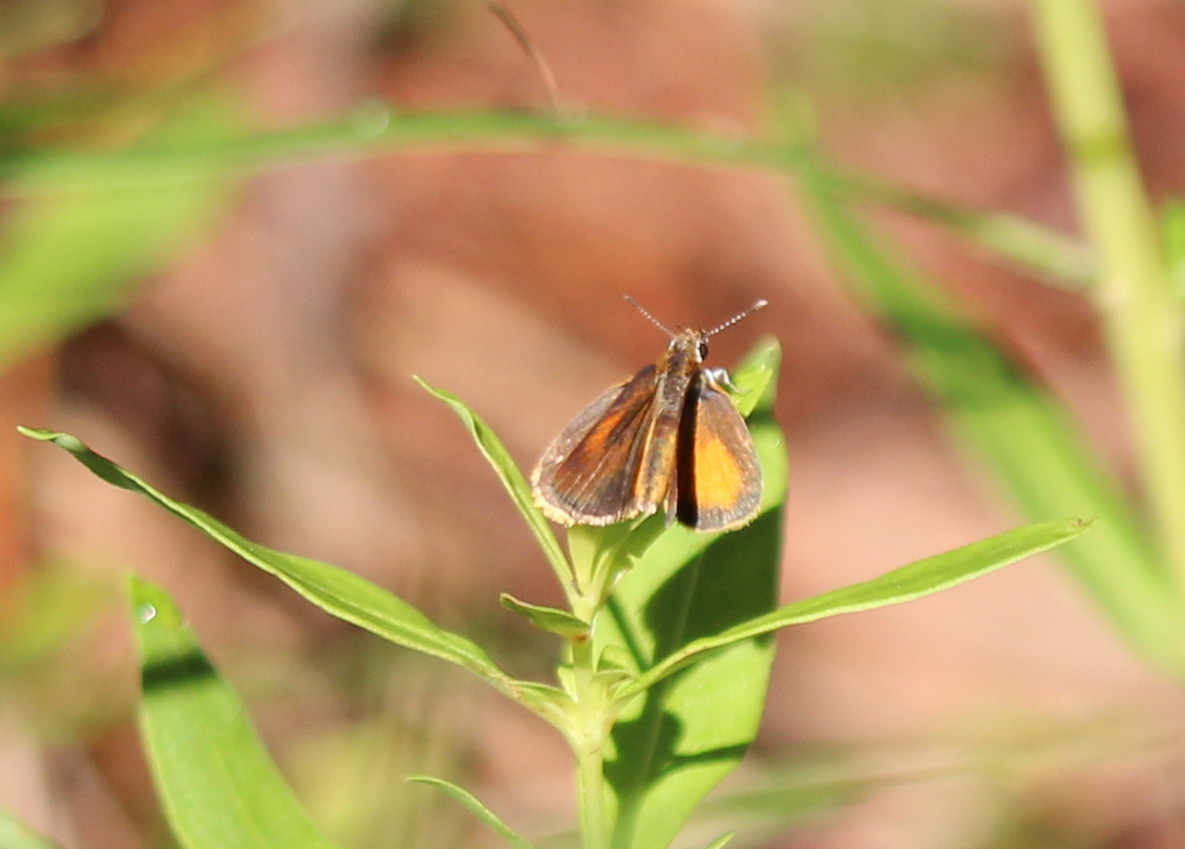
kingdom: Animalia
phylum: Arthropoda
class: Insecta
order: Lepidoptera
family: Hesperiidae
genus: Ancyloxypha
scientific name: Ancyloxypha numitor
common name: Least skipper
